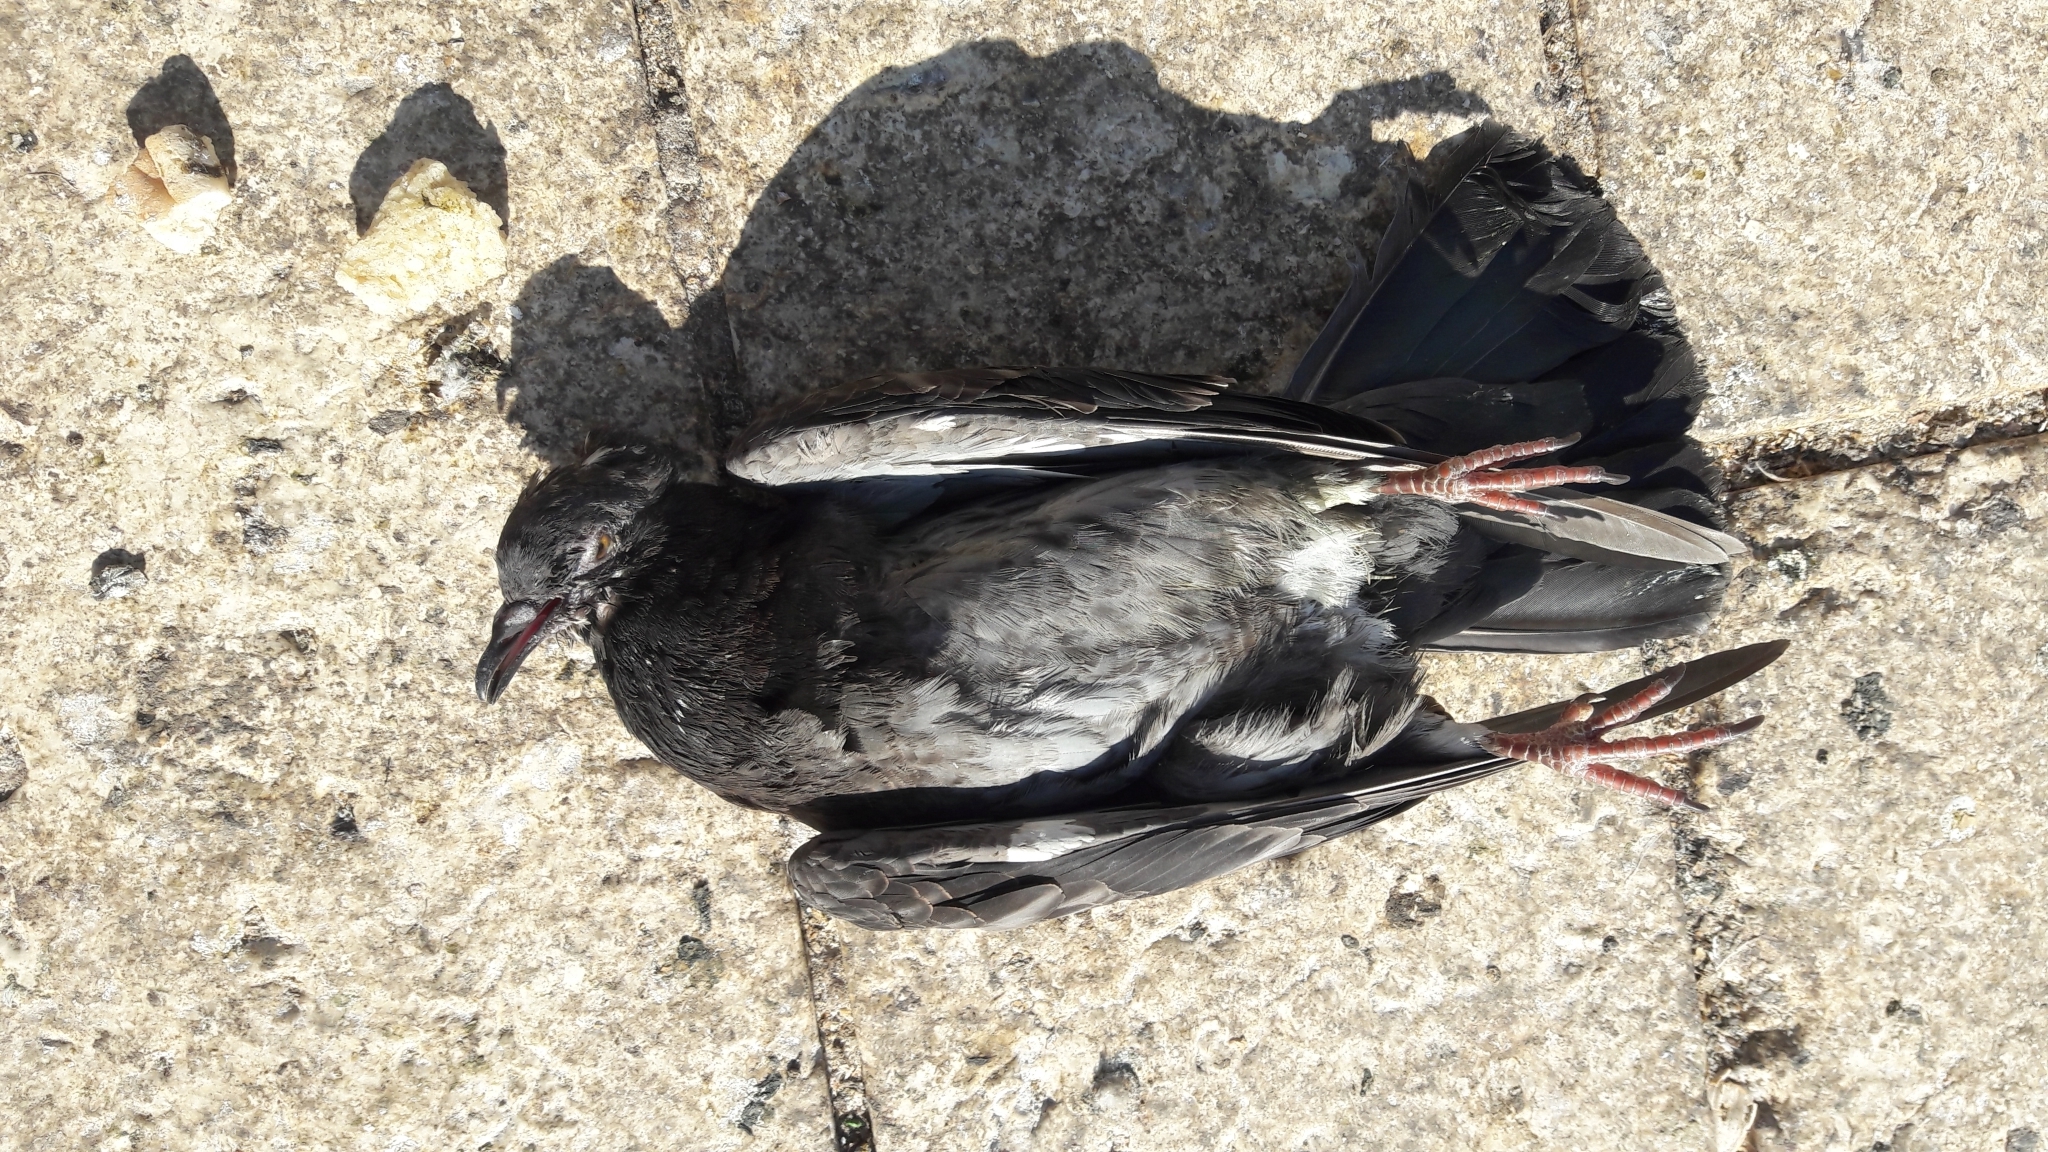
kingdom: Animalia
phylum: Chordata
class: Aves
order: Columbiformes
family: Columbidae
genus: Columba
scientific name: Columba livia
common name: Rock pigeon
